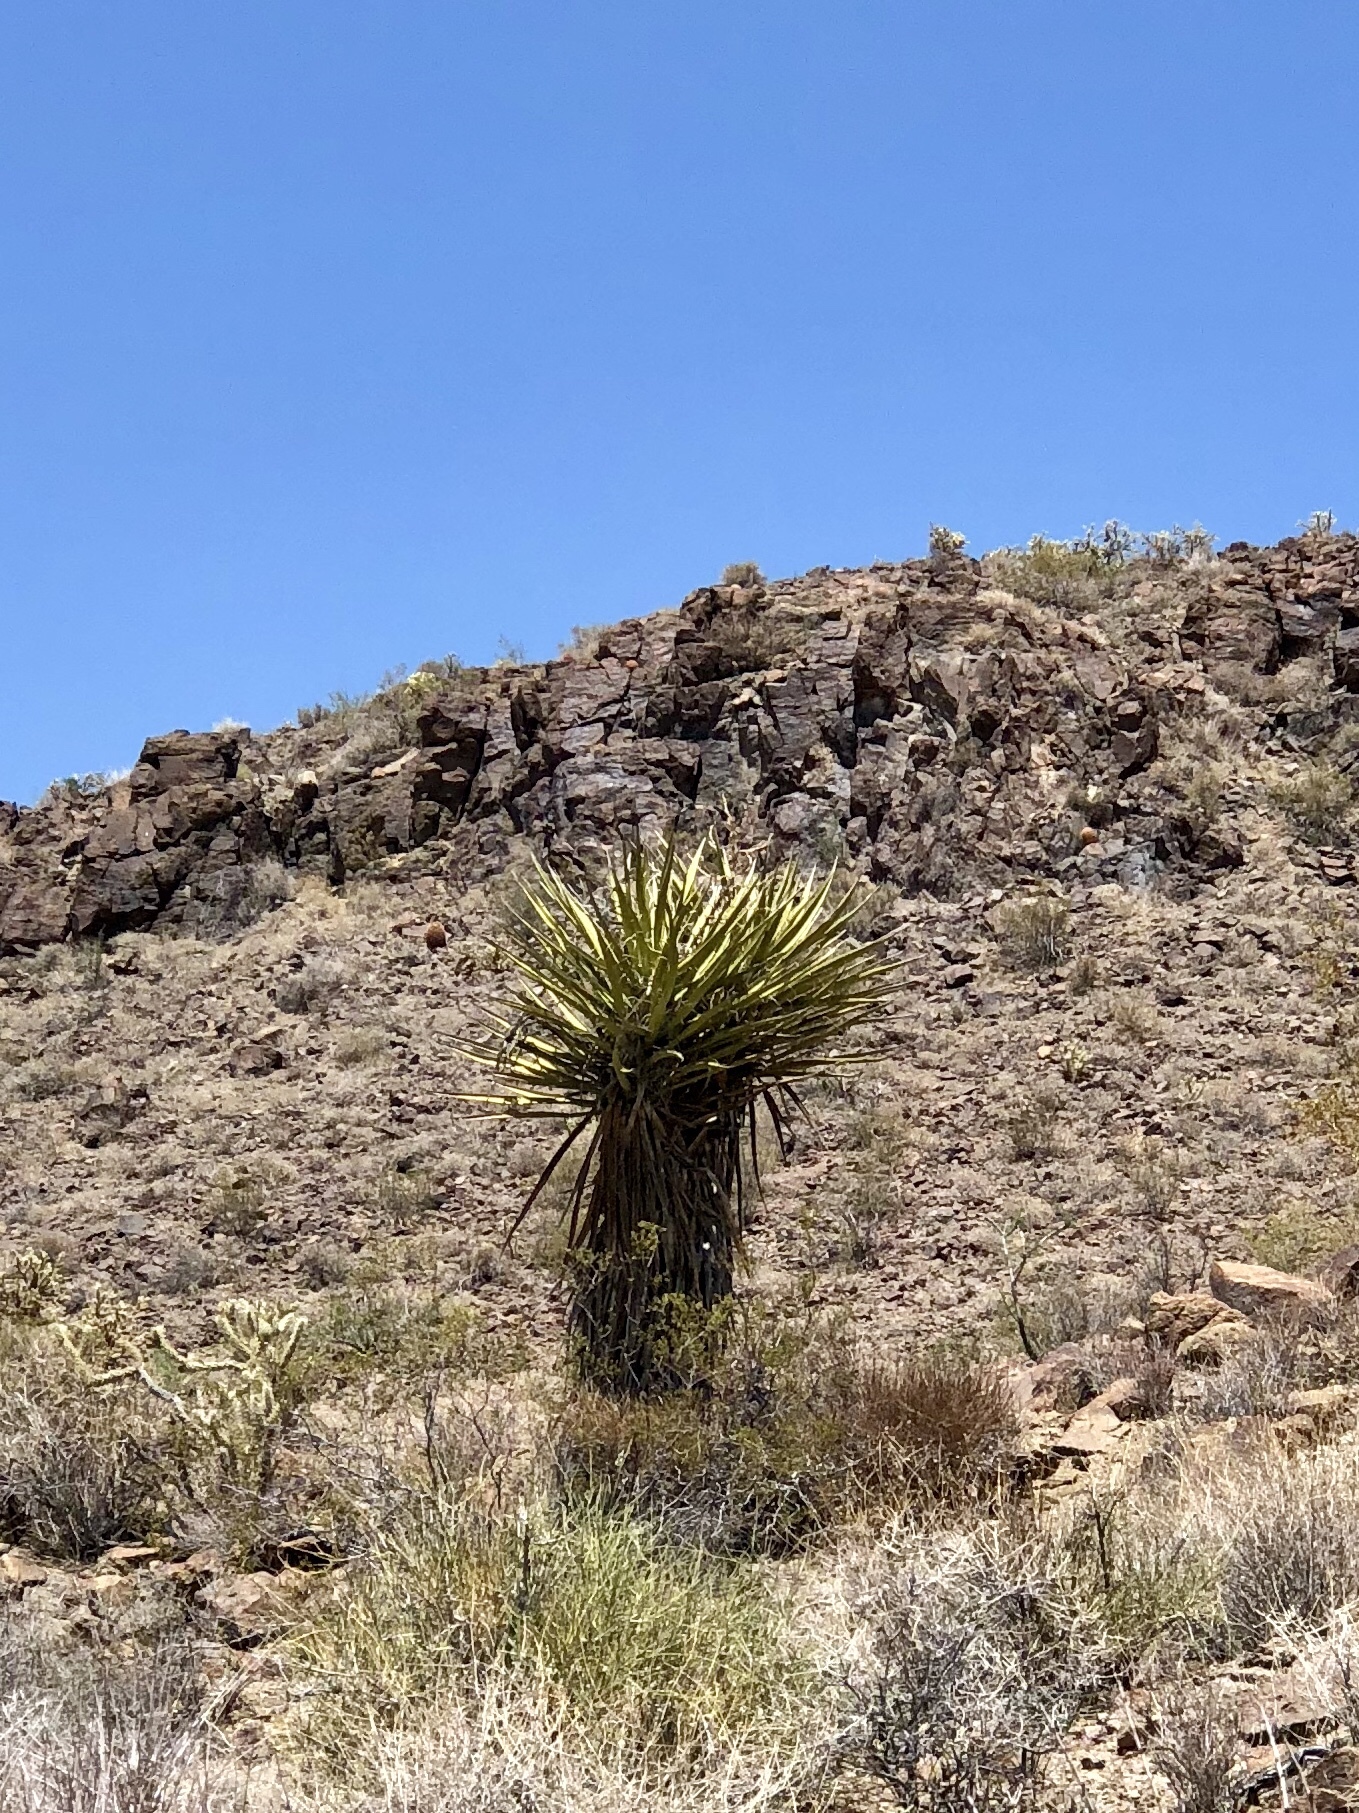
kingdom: Plantae
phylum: Tracheophyta
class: Liliopsida
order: Asparagales
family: Asparagaceae
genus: Yucca
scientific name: Yucca schidigera
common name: Mojave yucca
